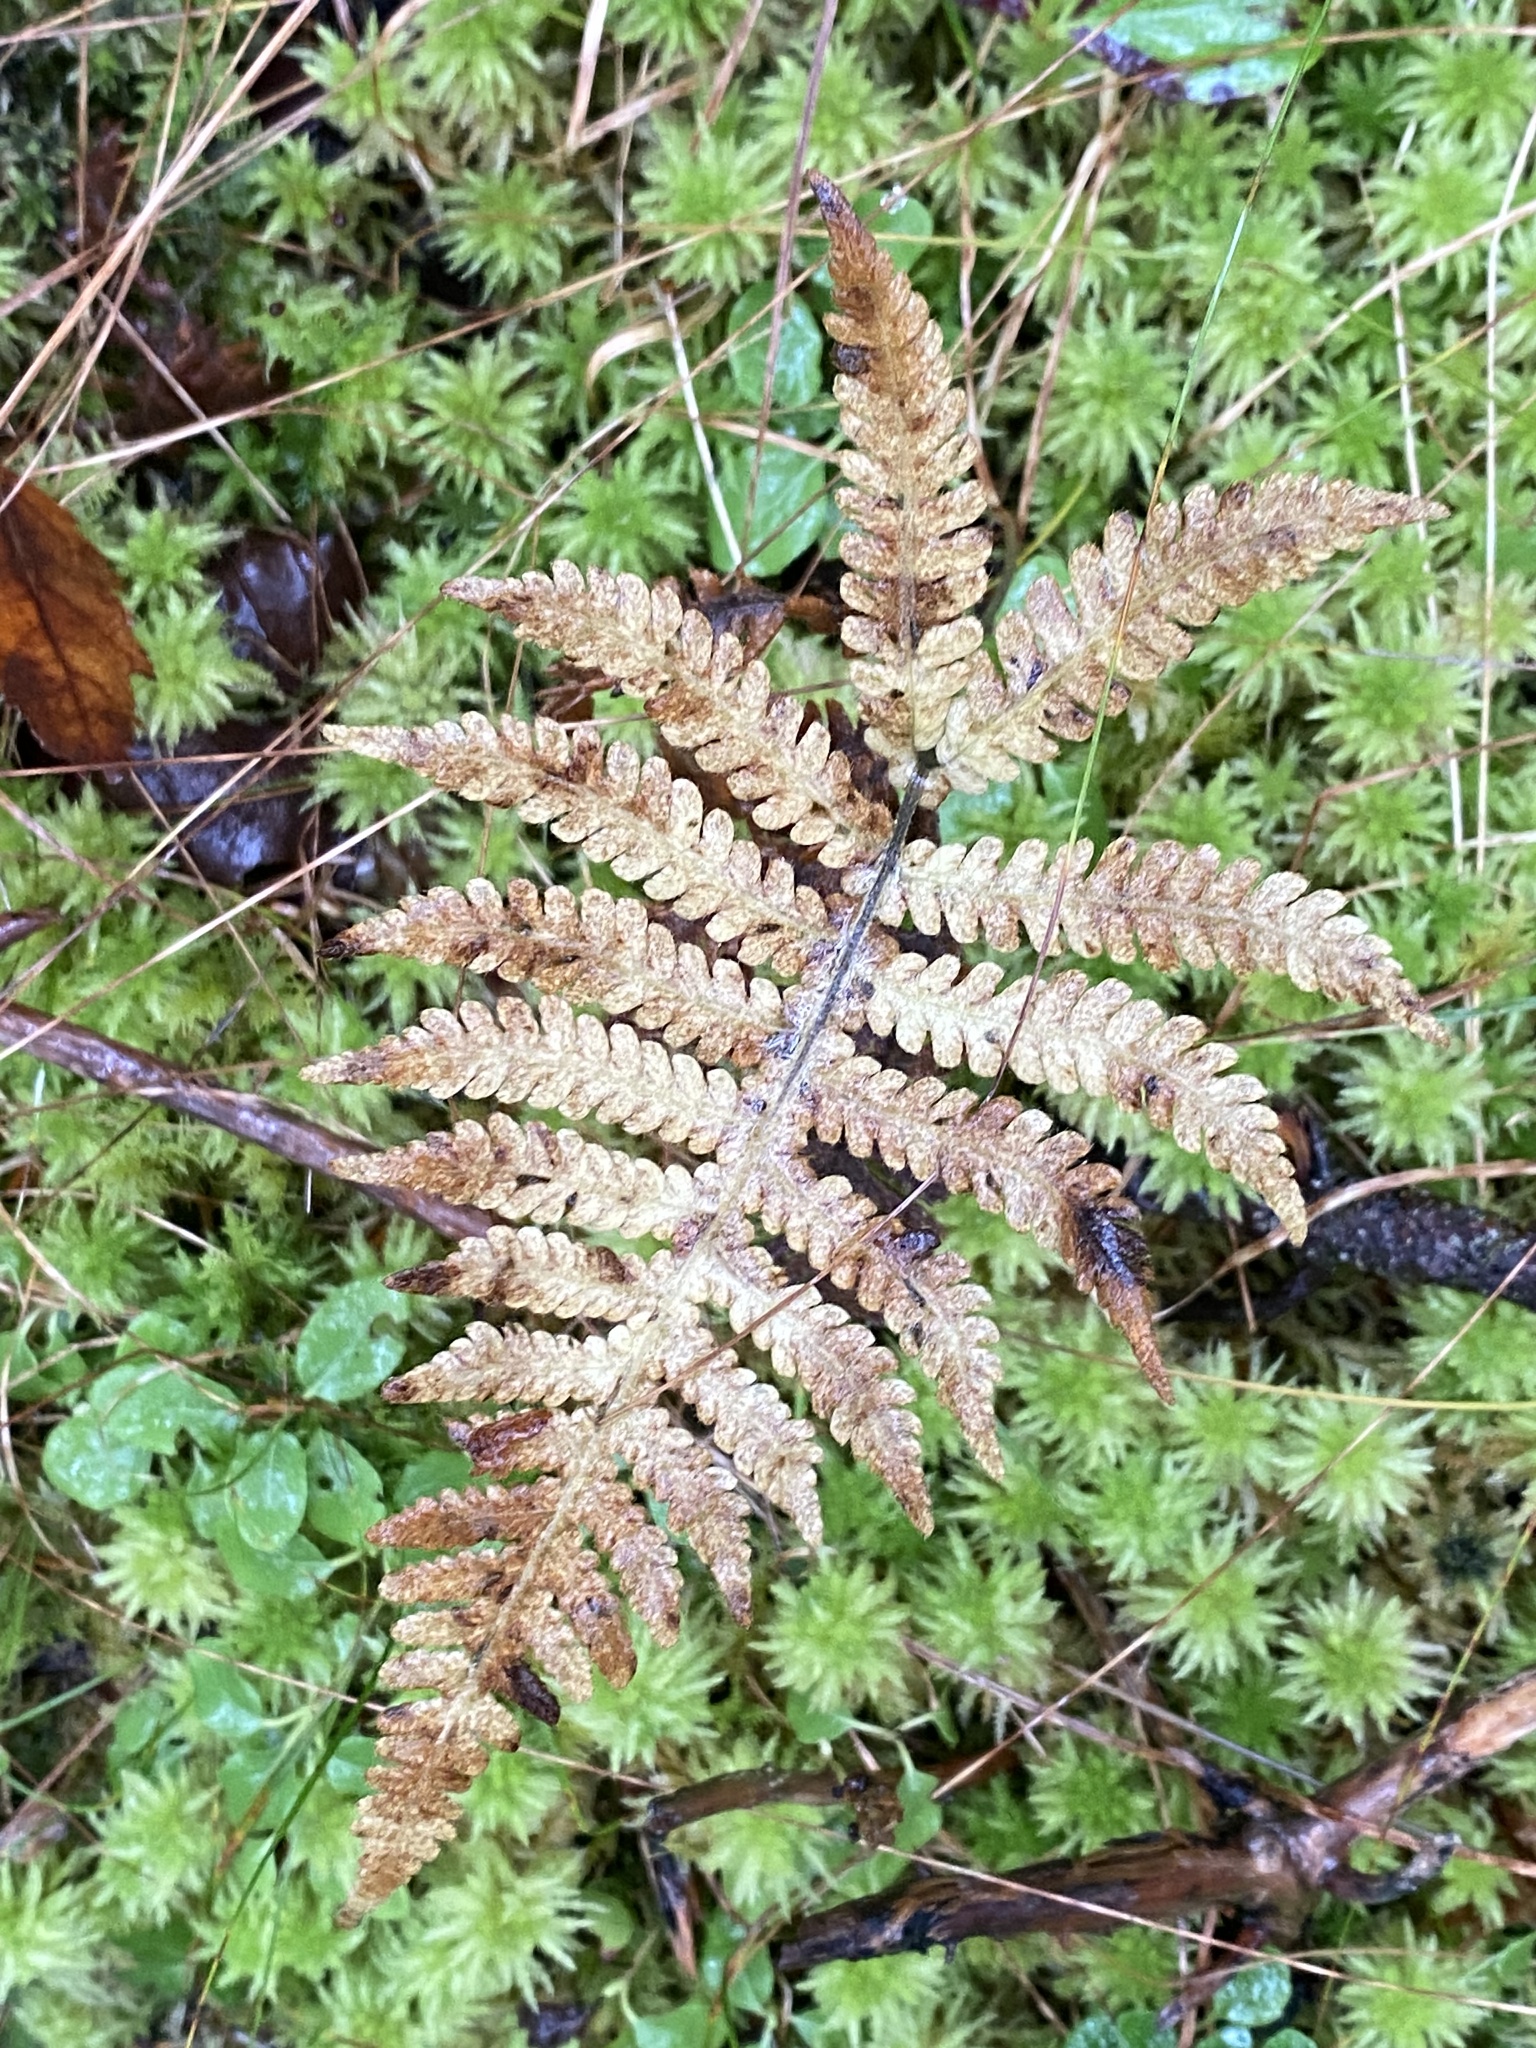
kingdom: Plantae
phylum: Tracheophyta
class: Polypodiopsida
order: Polypodiales
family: Thelypteridaceae
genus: Phegopteris
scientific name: Phegopteris connectilis
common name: Beech fern
